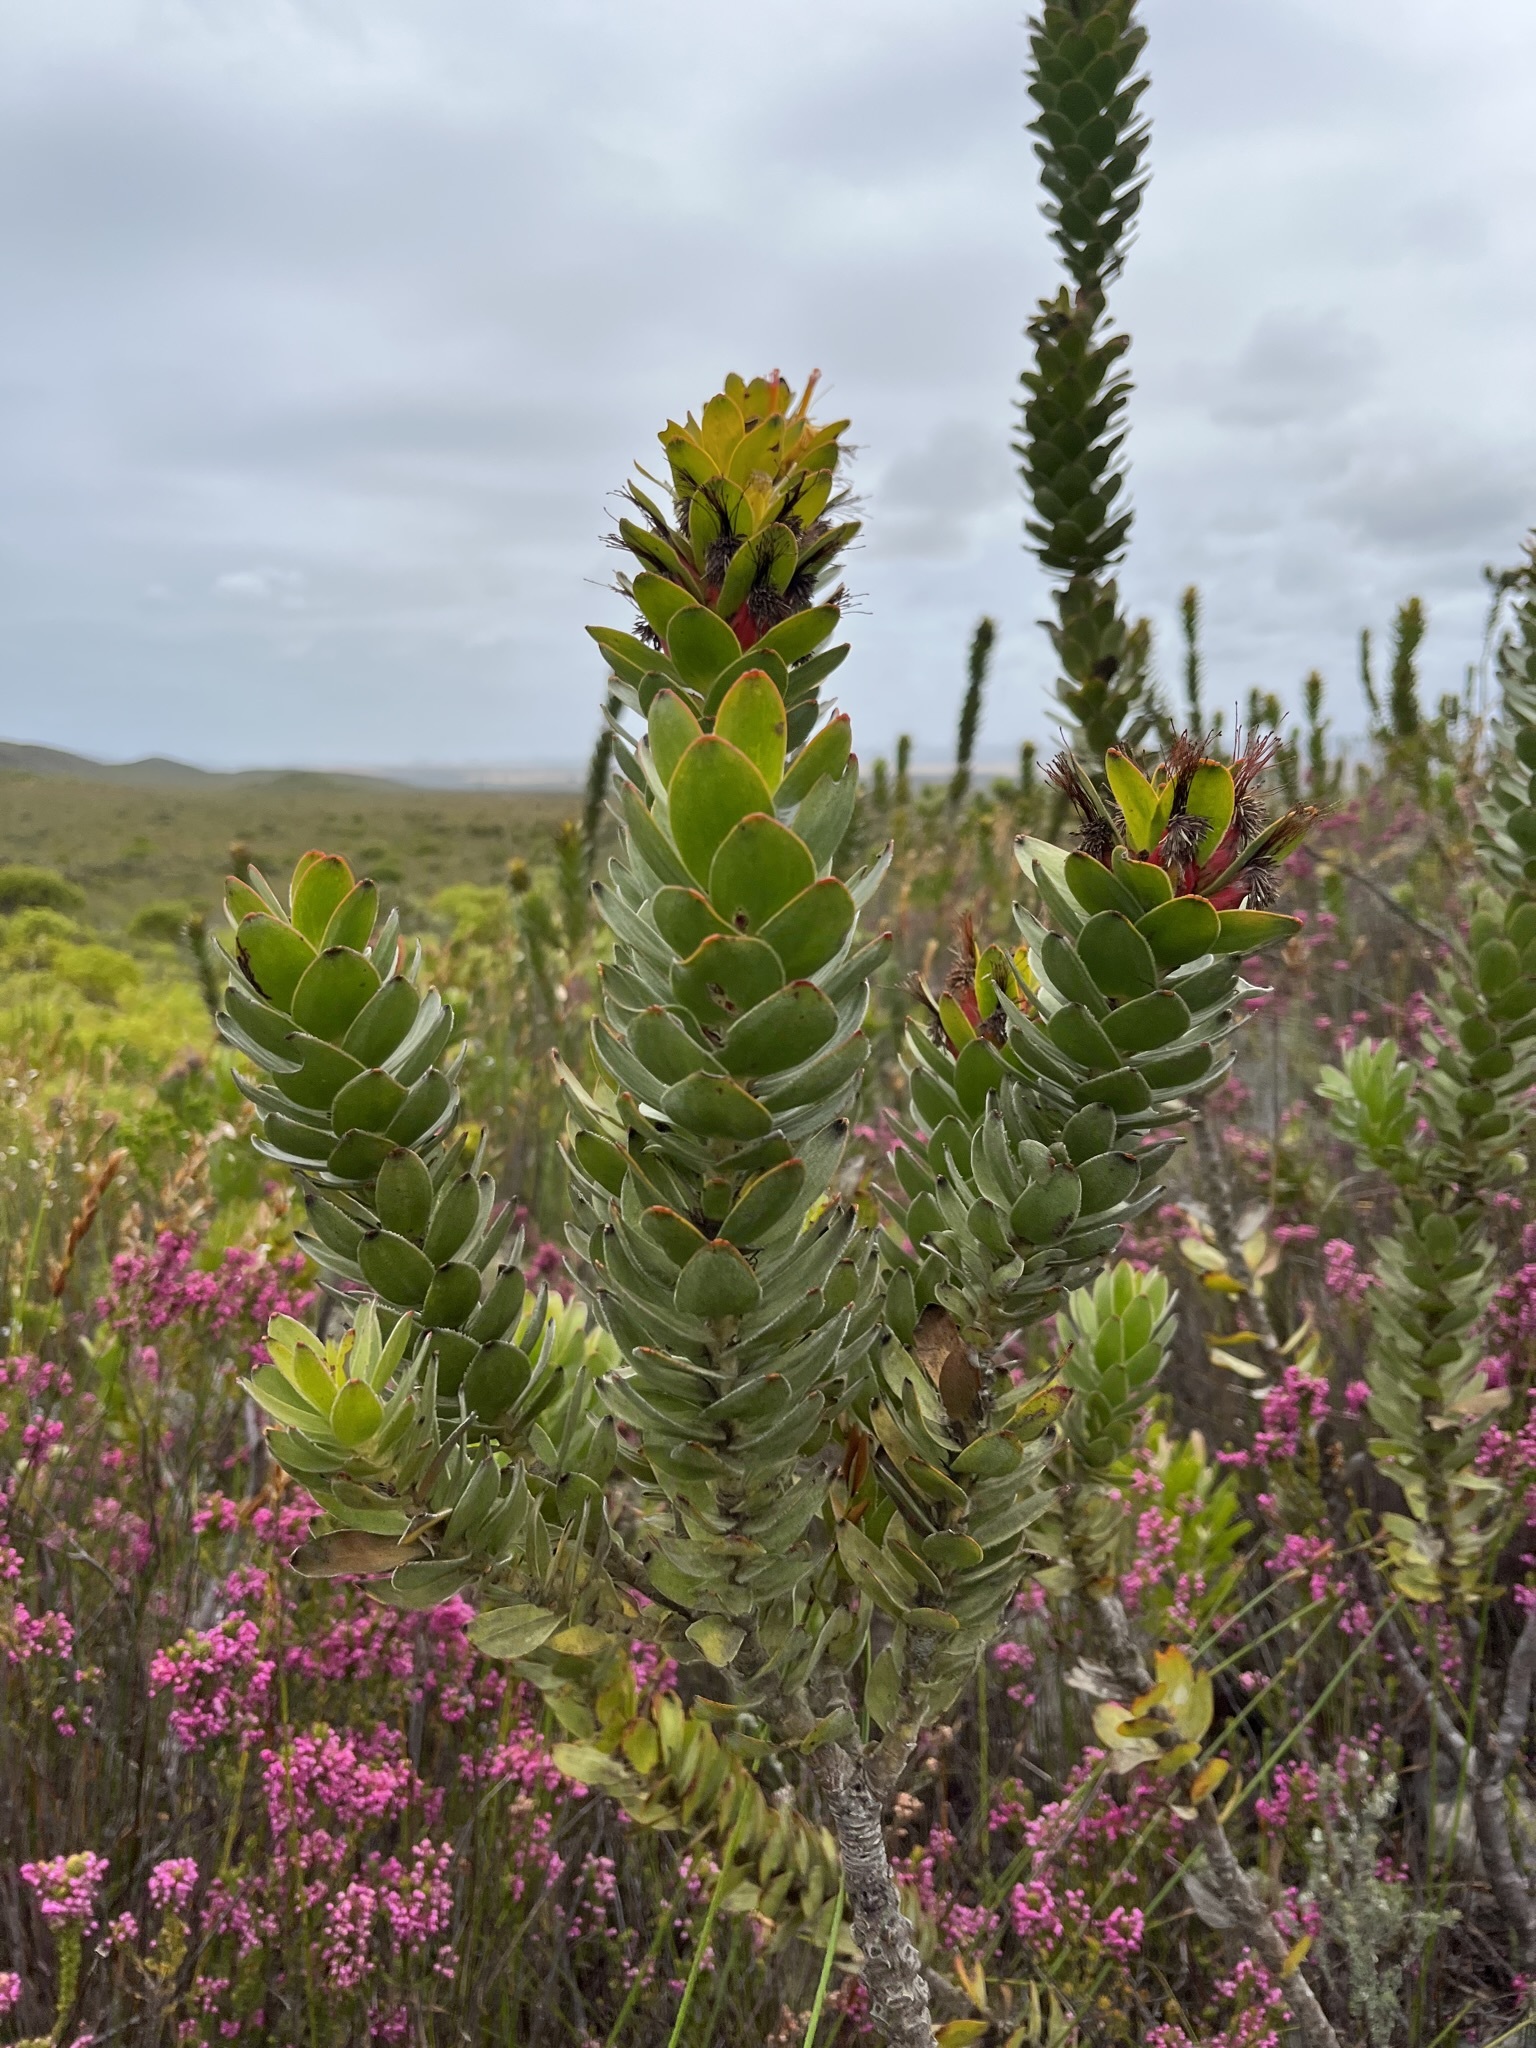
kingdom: Plantae
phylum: Tracheophyta
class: Magnoliopsida
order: Proteales
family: Proteaceae
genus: Mimetes
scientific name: Mimetes saxatilis
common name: Limestone pagoda
